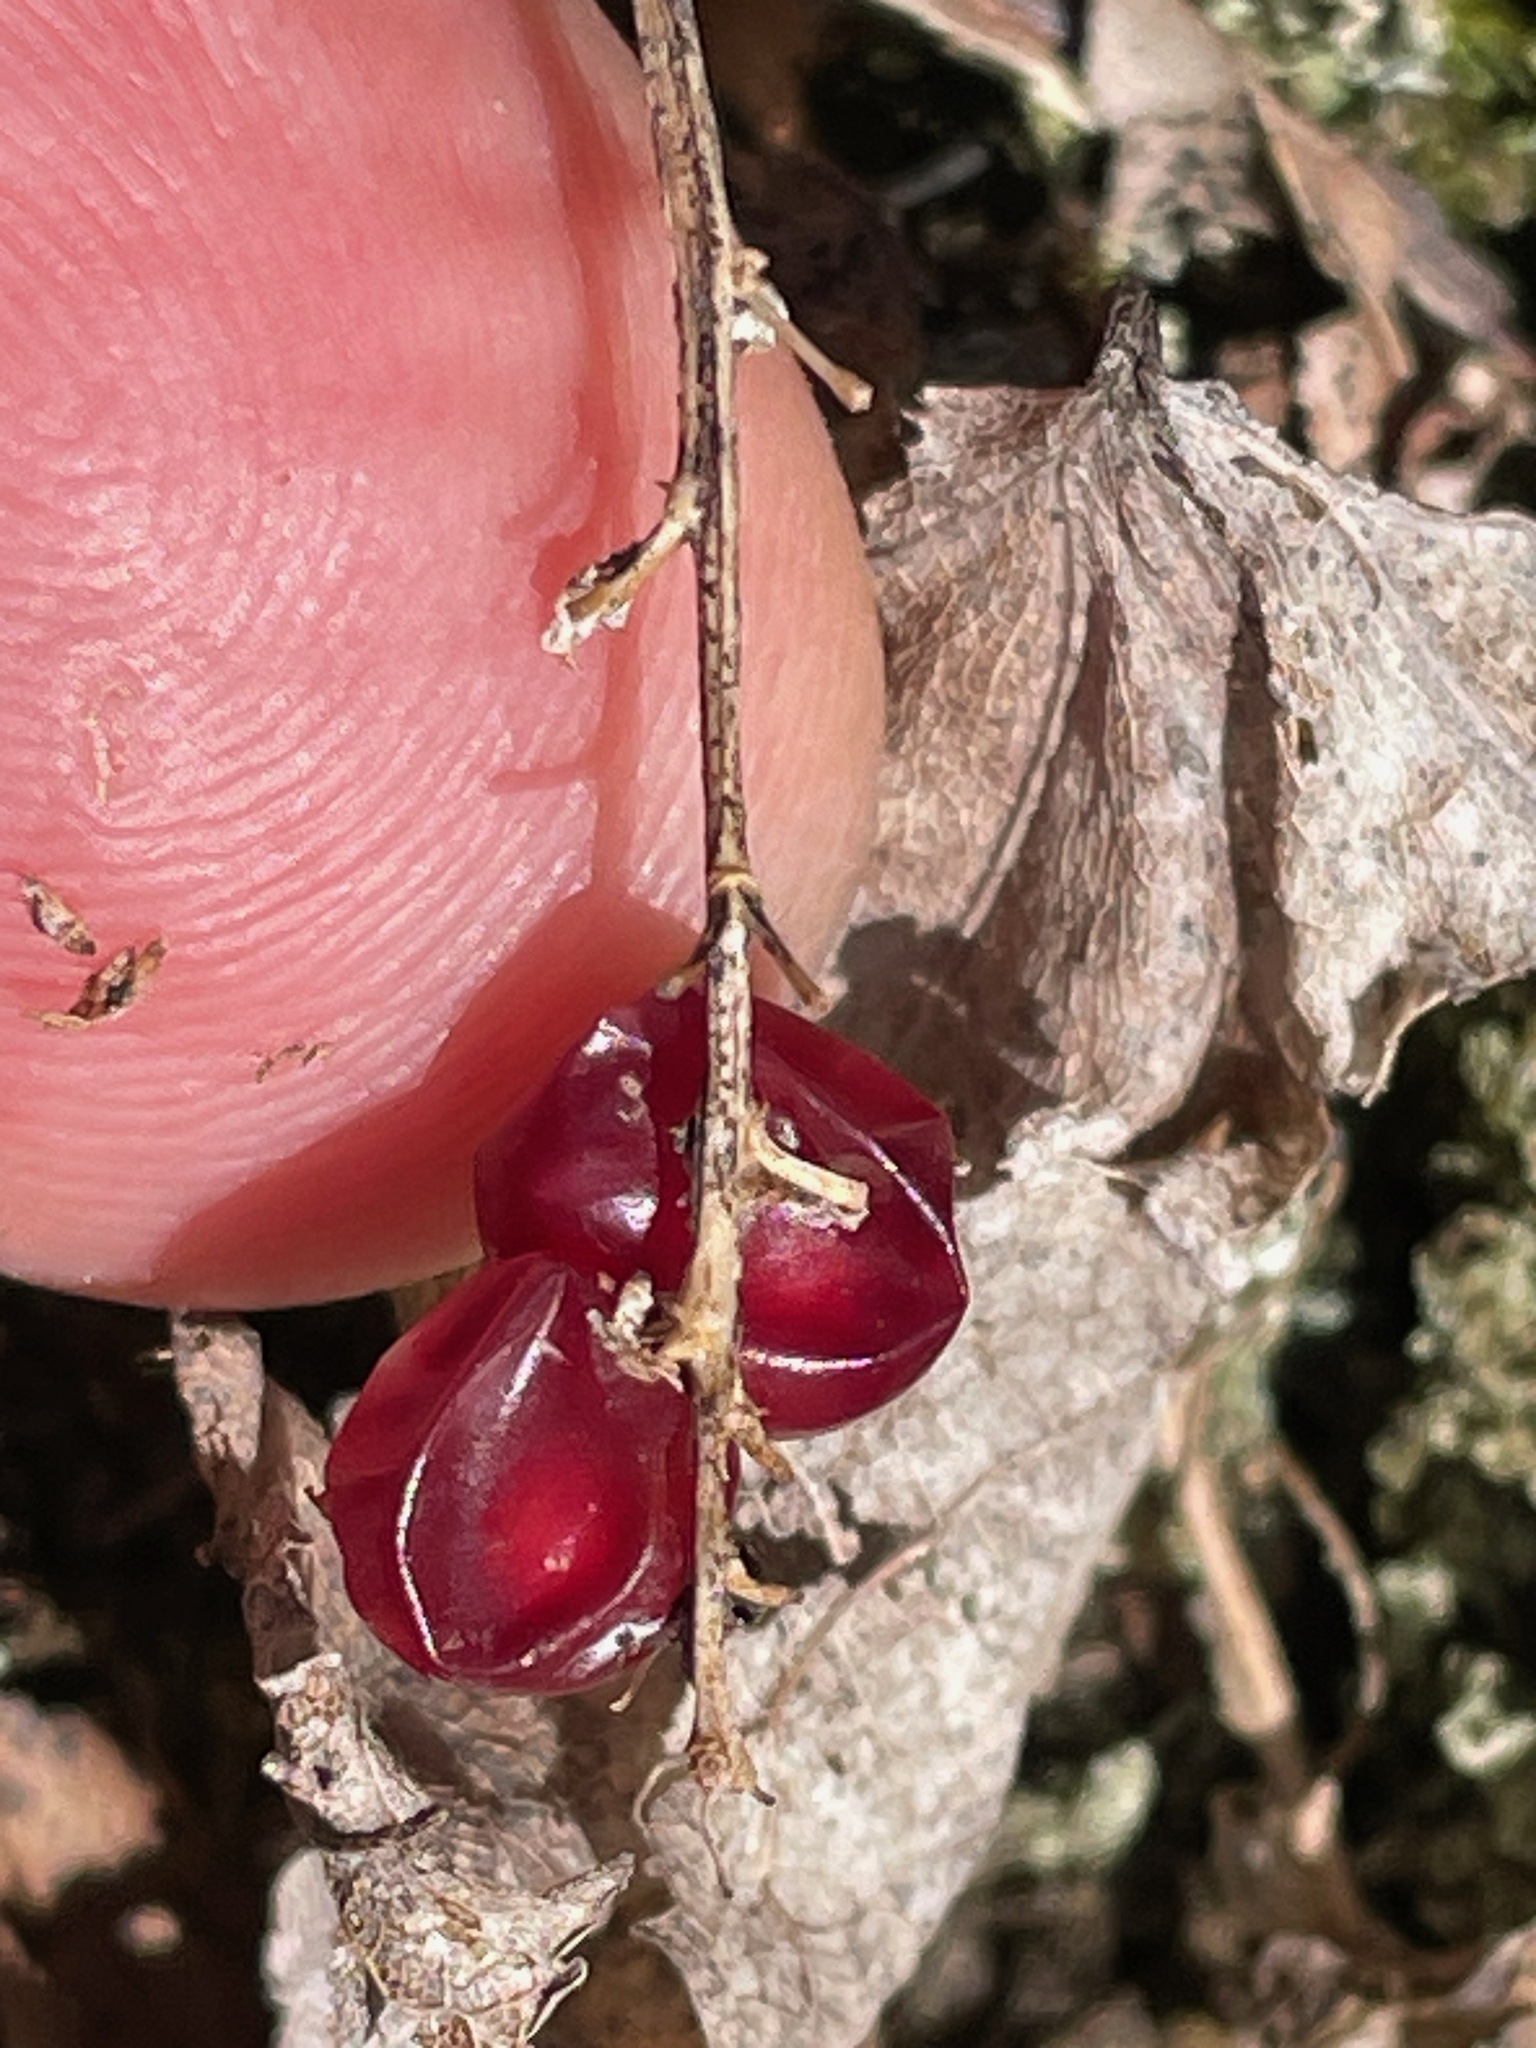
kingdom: Plantae
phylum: Tracheophyta
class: Liliopsida
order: Asparagales
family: Asparagaceae
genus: Maianthemum
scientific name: Maianthemum canadense
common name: False lily-of-the-valley
